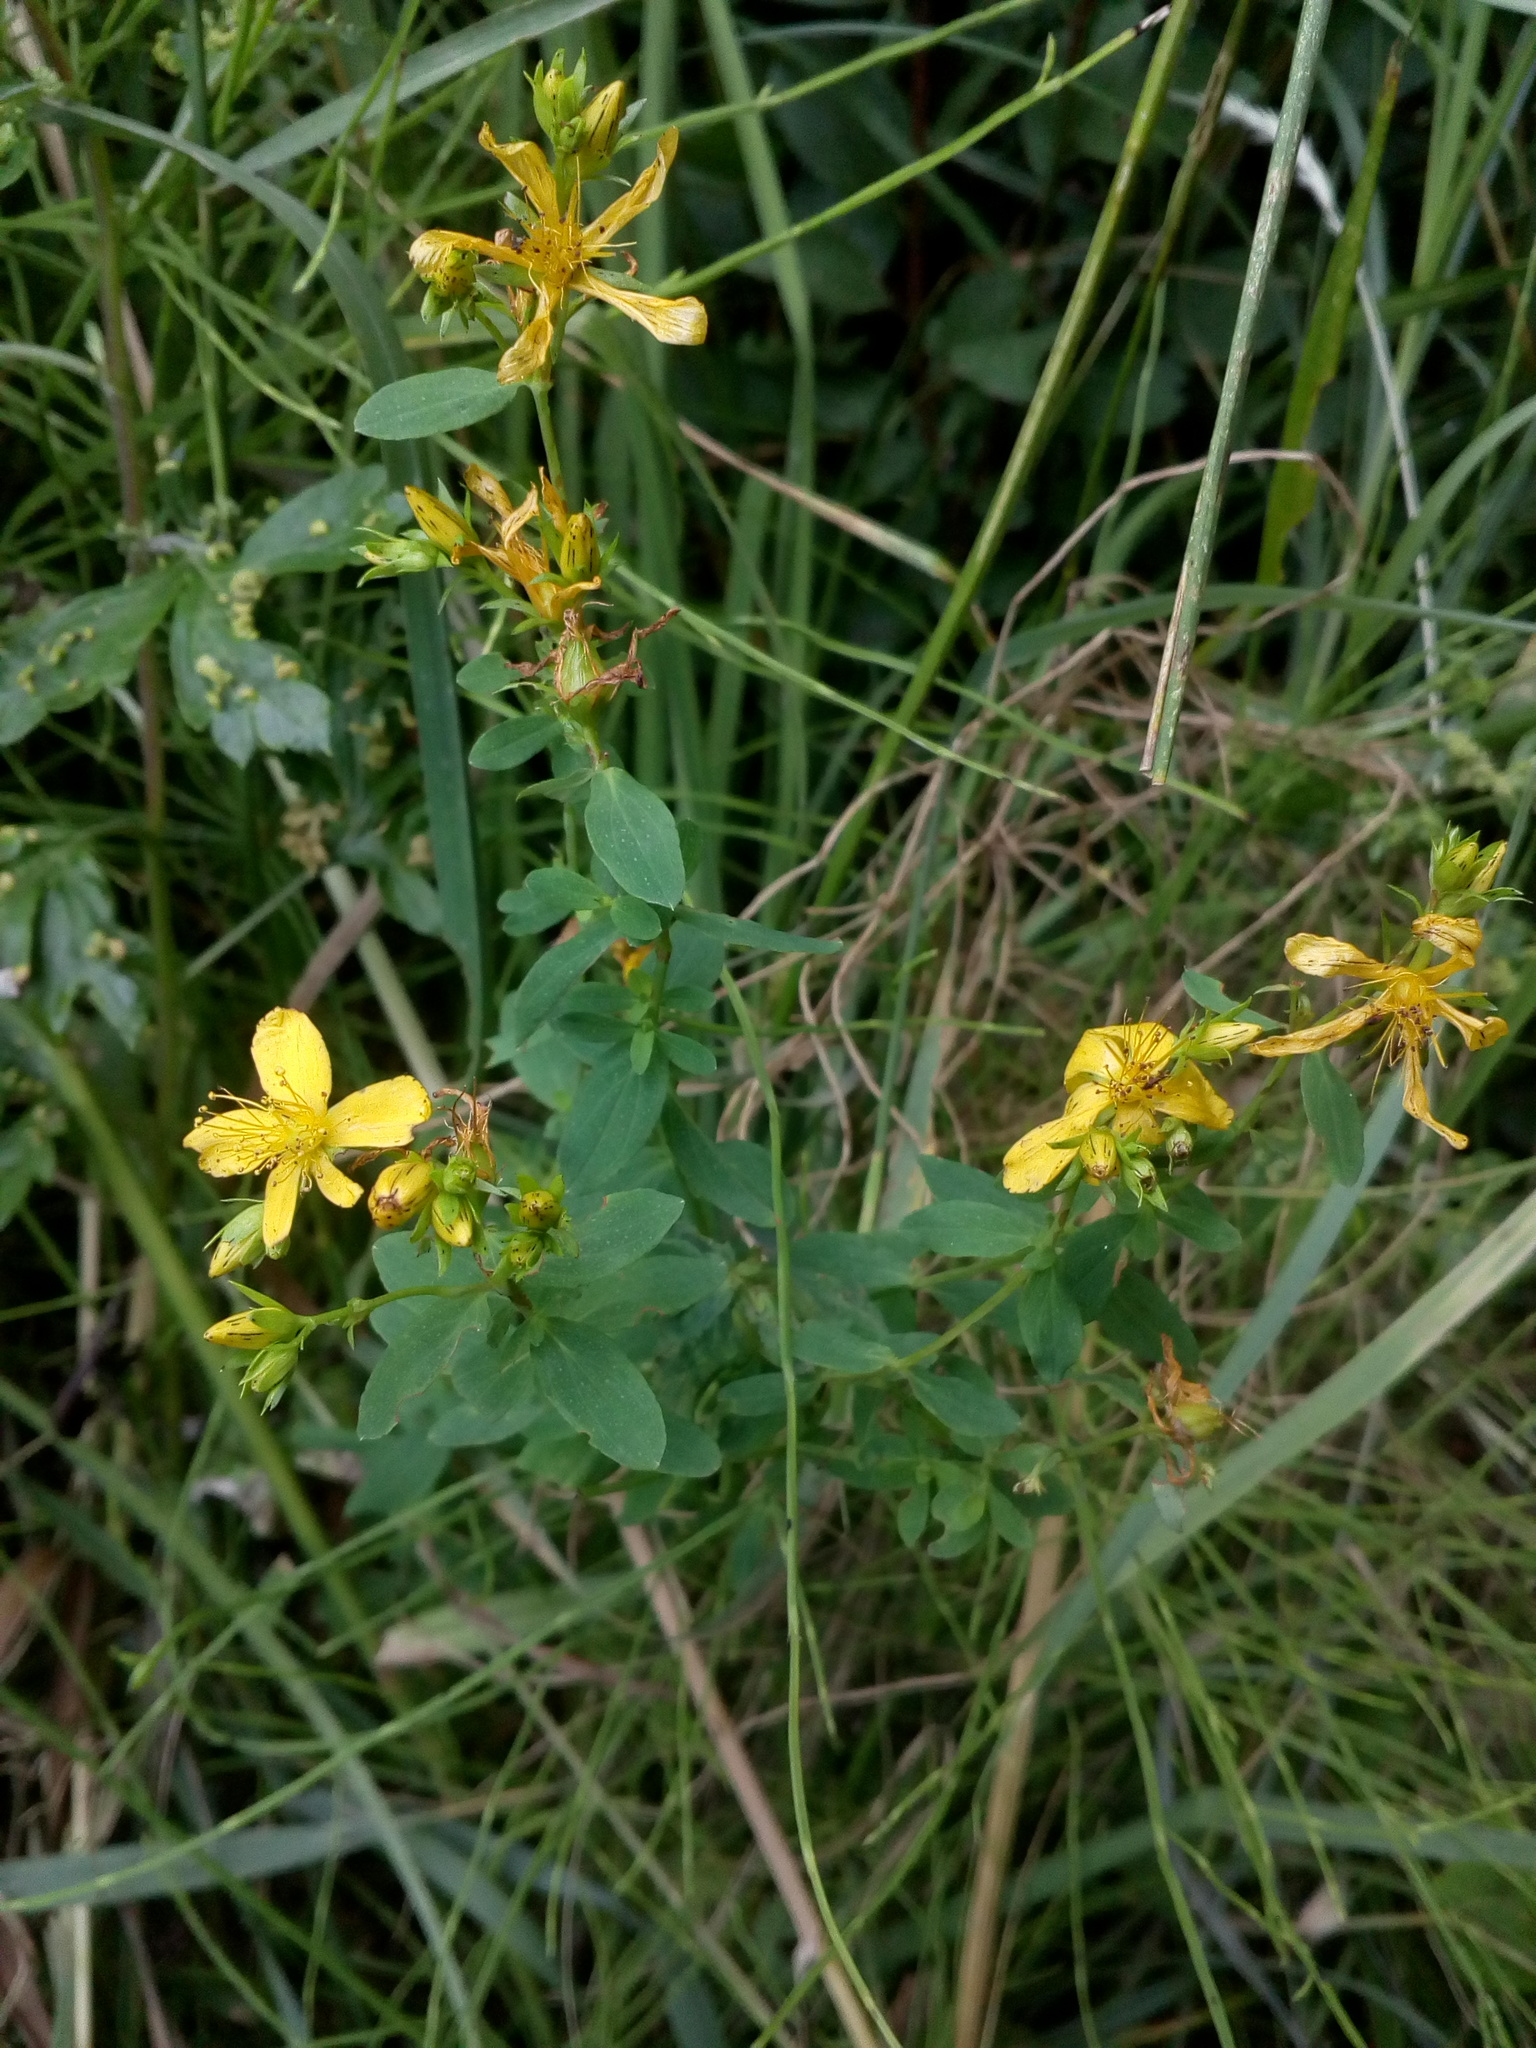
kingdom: Plantae
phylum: Tracheophyta
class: Magnoliopsida
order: Malpighiales
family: Hypericaceae
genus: Hypericum
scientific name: Hypericum perforatum
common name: Common st. johnswort
